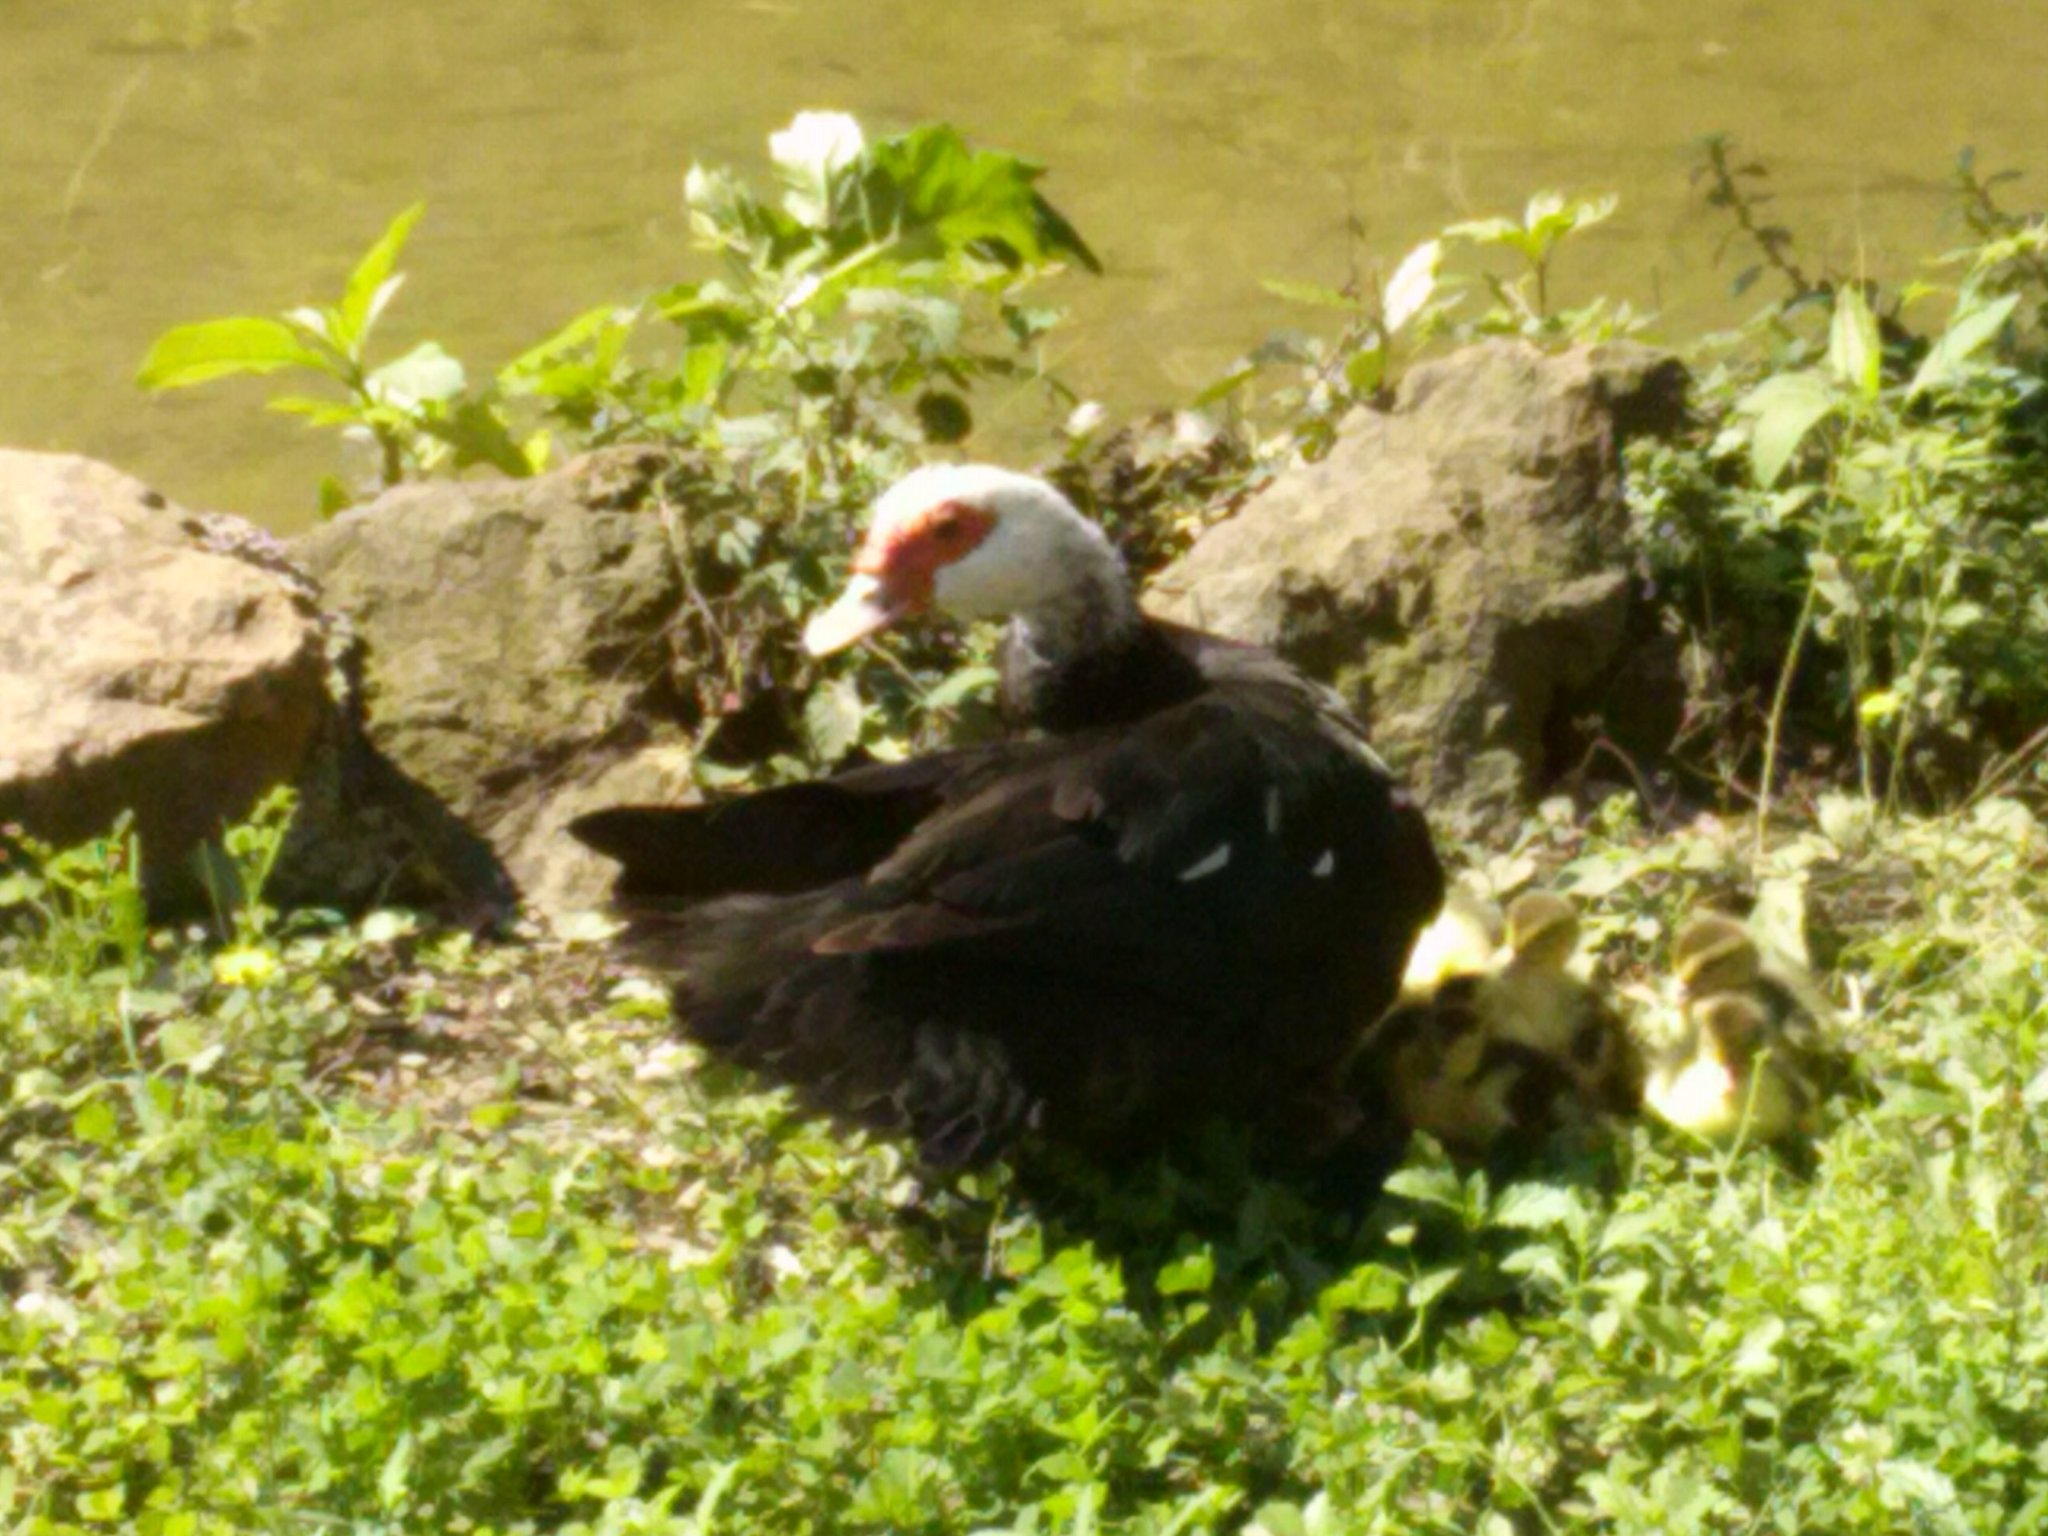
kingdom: Animalia
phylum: Chordata
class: Aves
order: Anseriformes
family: Anatidae
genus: Cairina
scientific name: Cairina moschata
